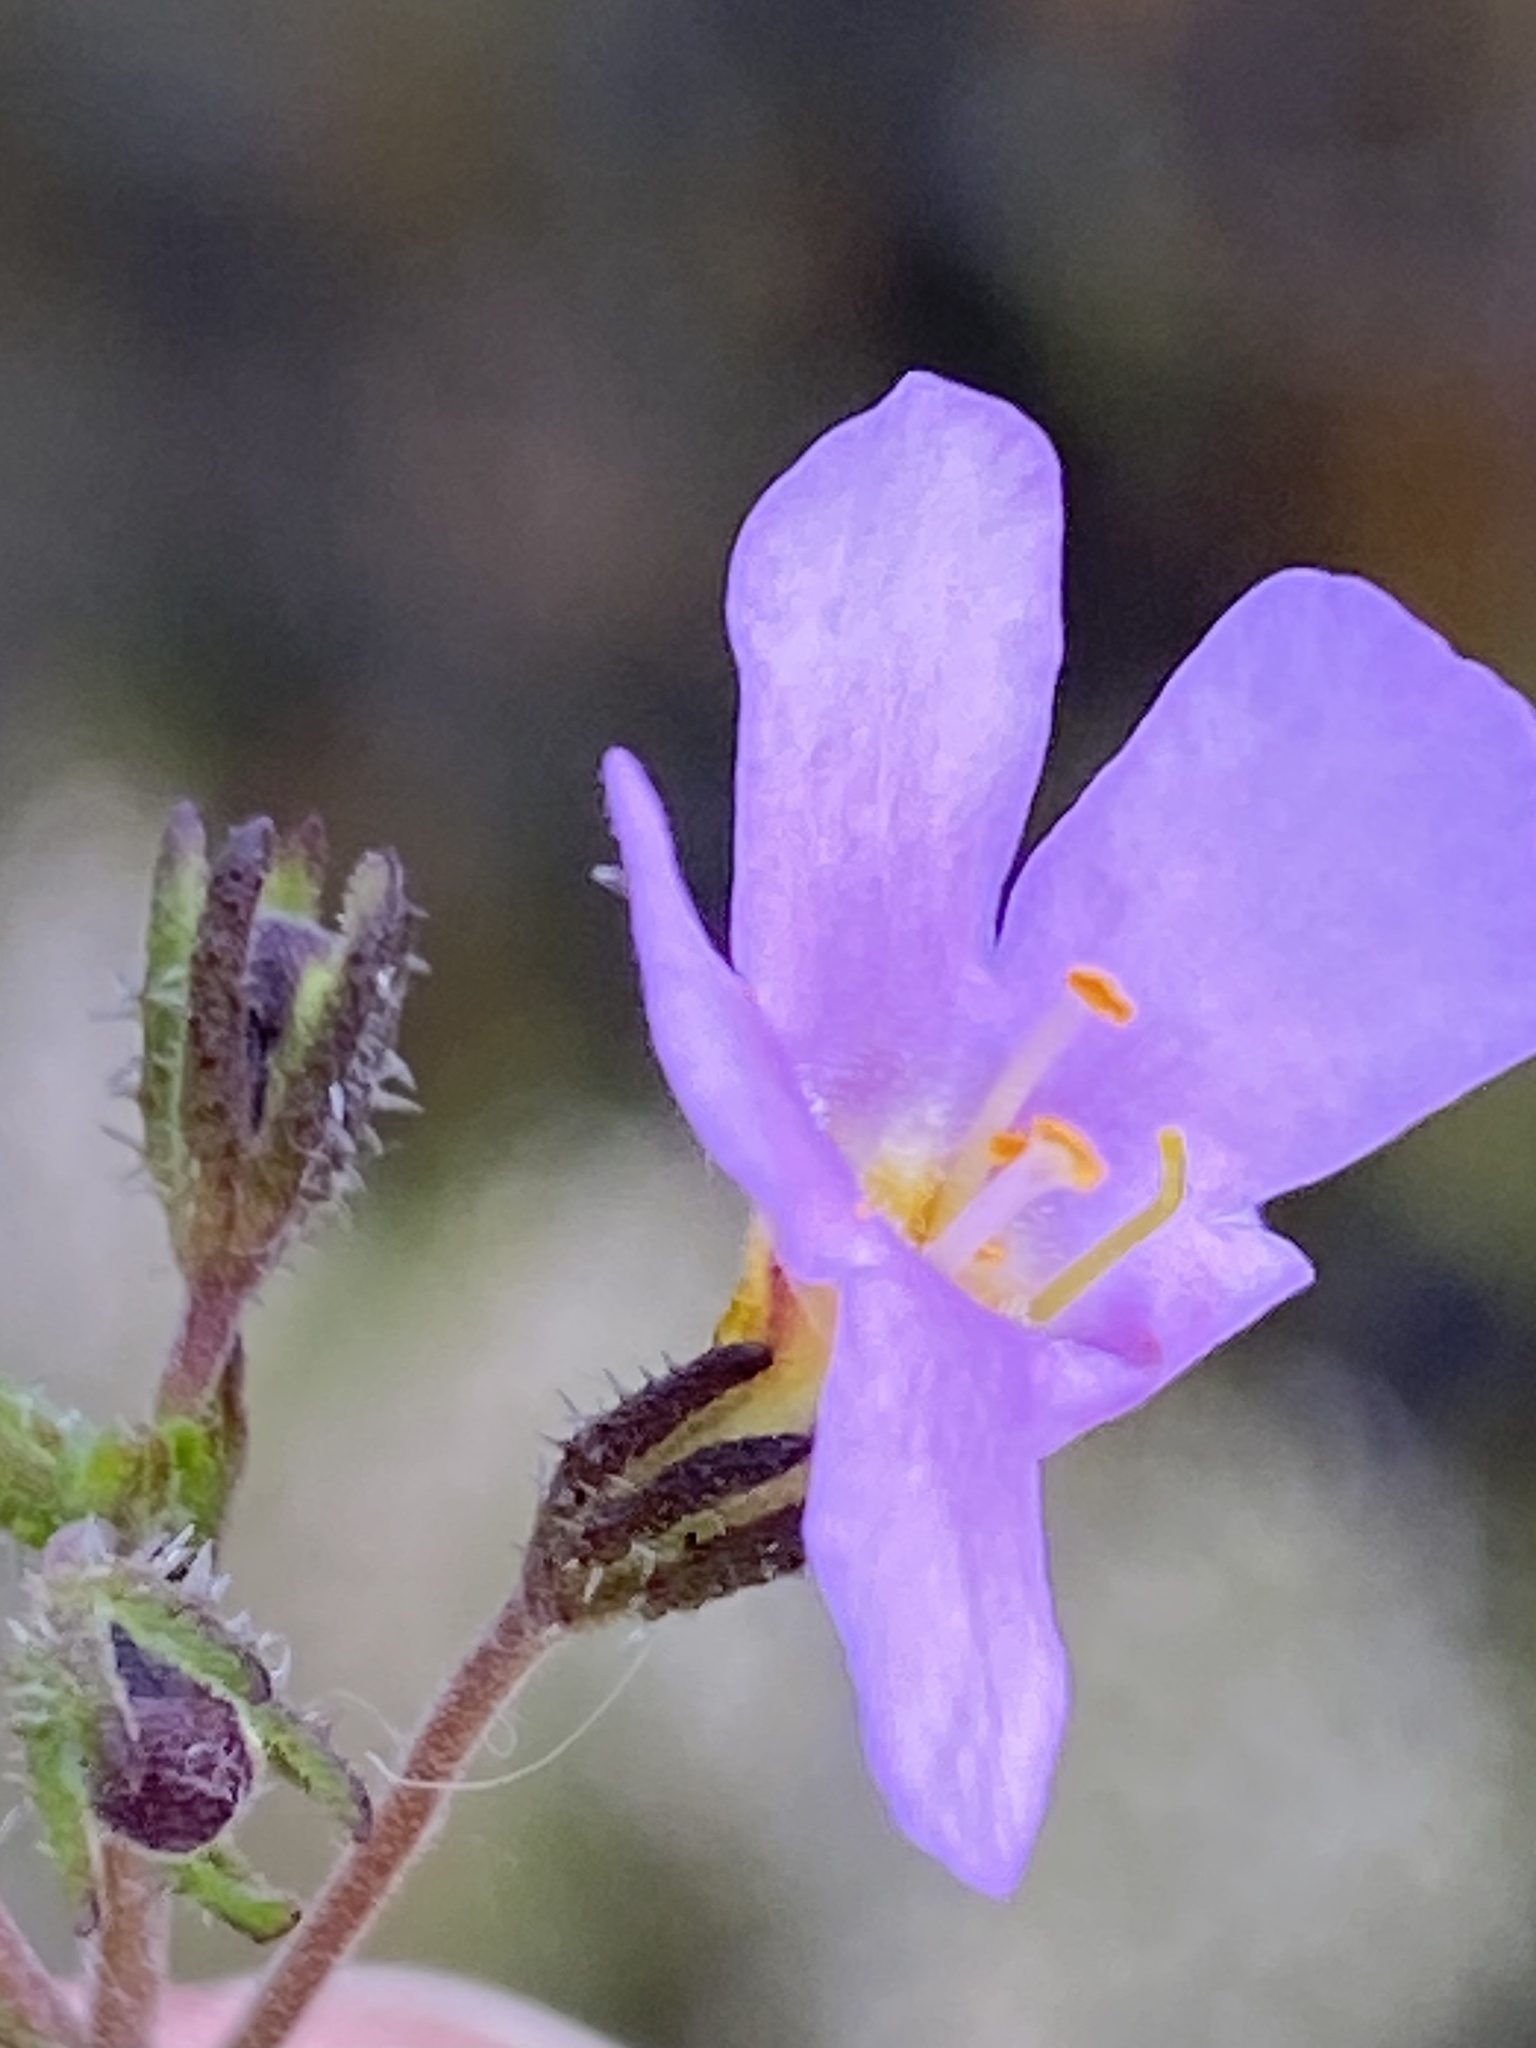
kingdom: Plantae
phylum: Tracheophyta
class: Magnoliopsida
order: Lamiales
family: Scrophulariaceae
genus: Chaenostoma
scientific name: Chaenostoma placidum
